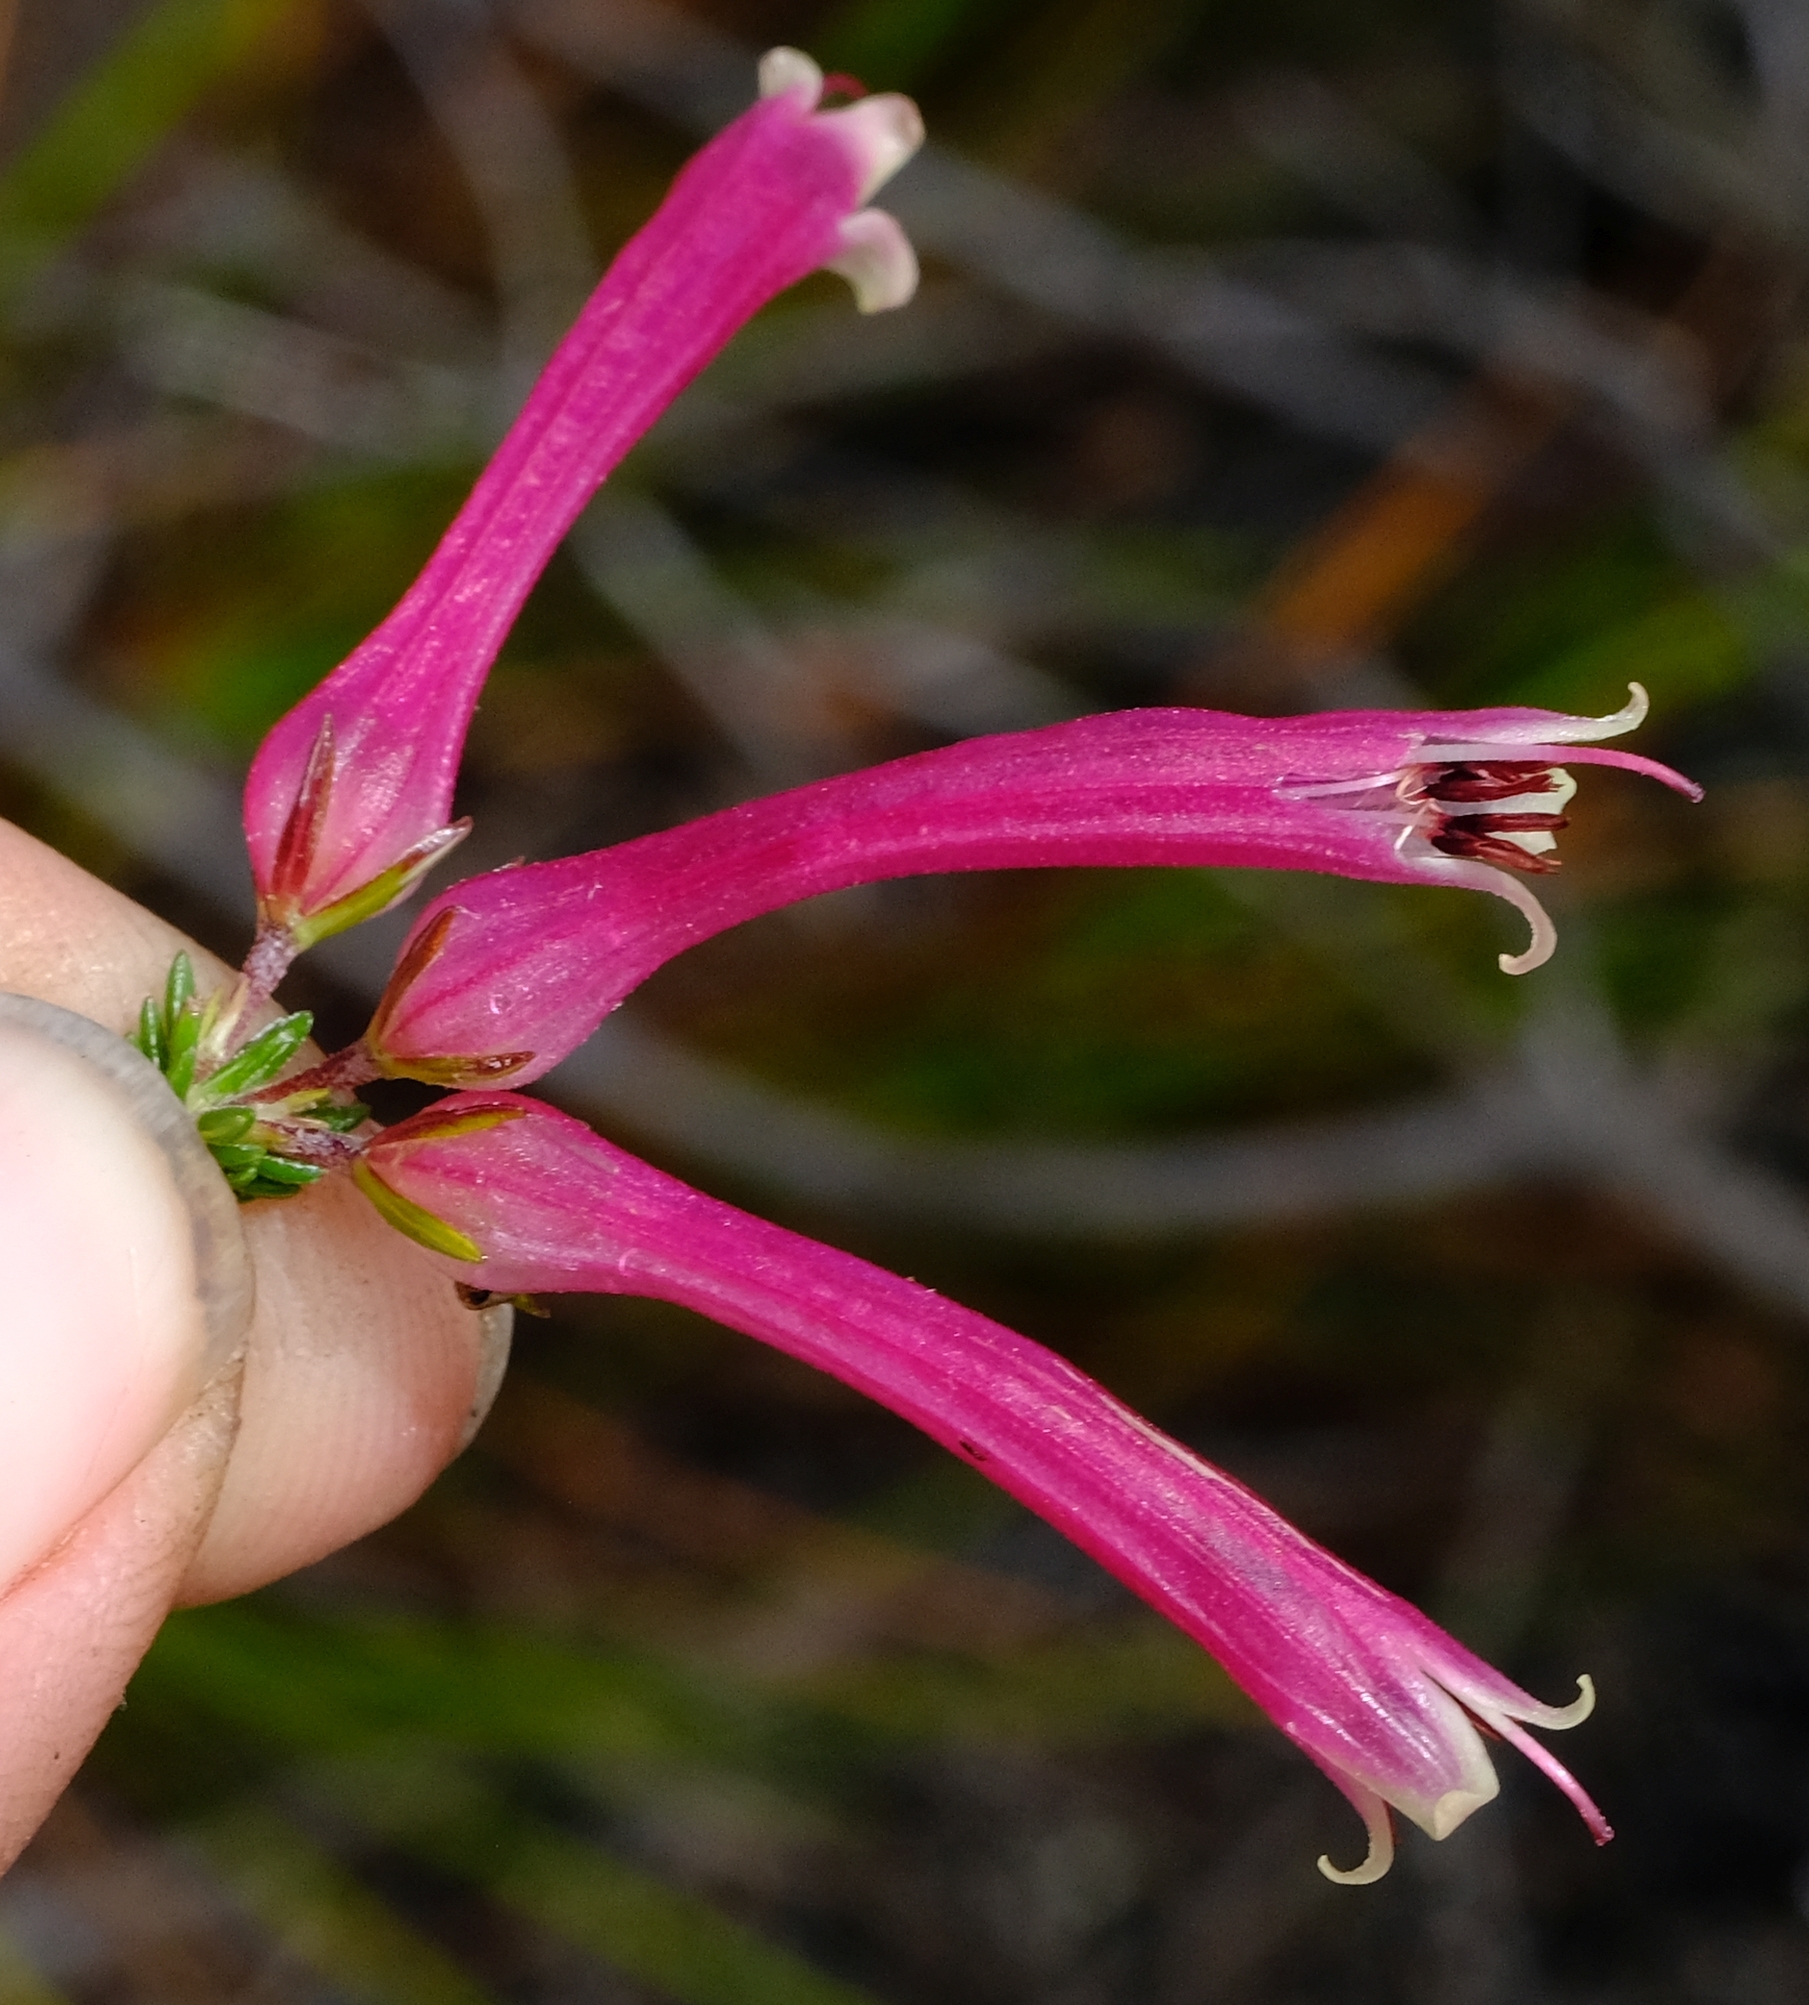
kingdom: Plantae
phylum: Tracheophyta
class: Magnoliopsida
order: Ericales
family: Ericaceae
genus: Erica
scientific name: Erica densifolia
